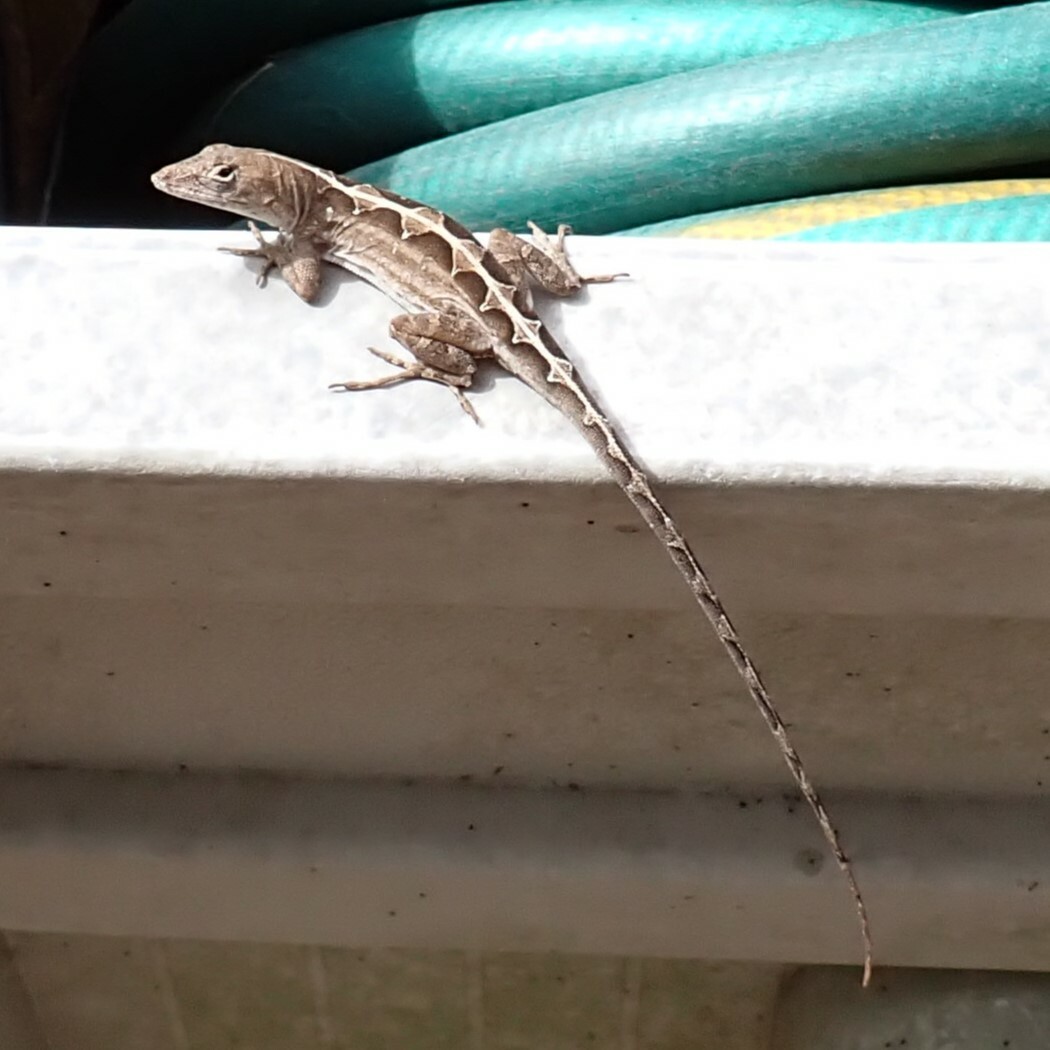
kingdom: Animalia
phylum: Chordata
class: Squamata
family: Dactyloidae
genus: Anolis
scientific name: Anolis sagrei
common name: Brown anole
